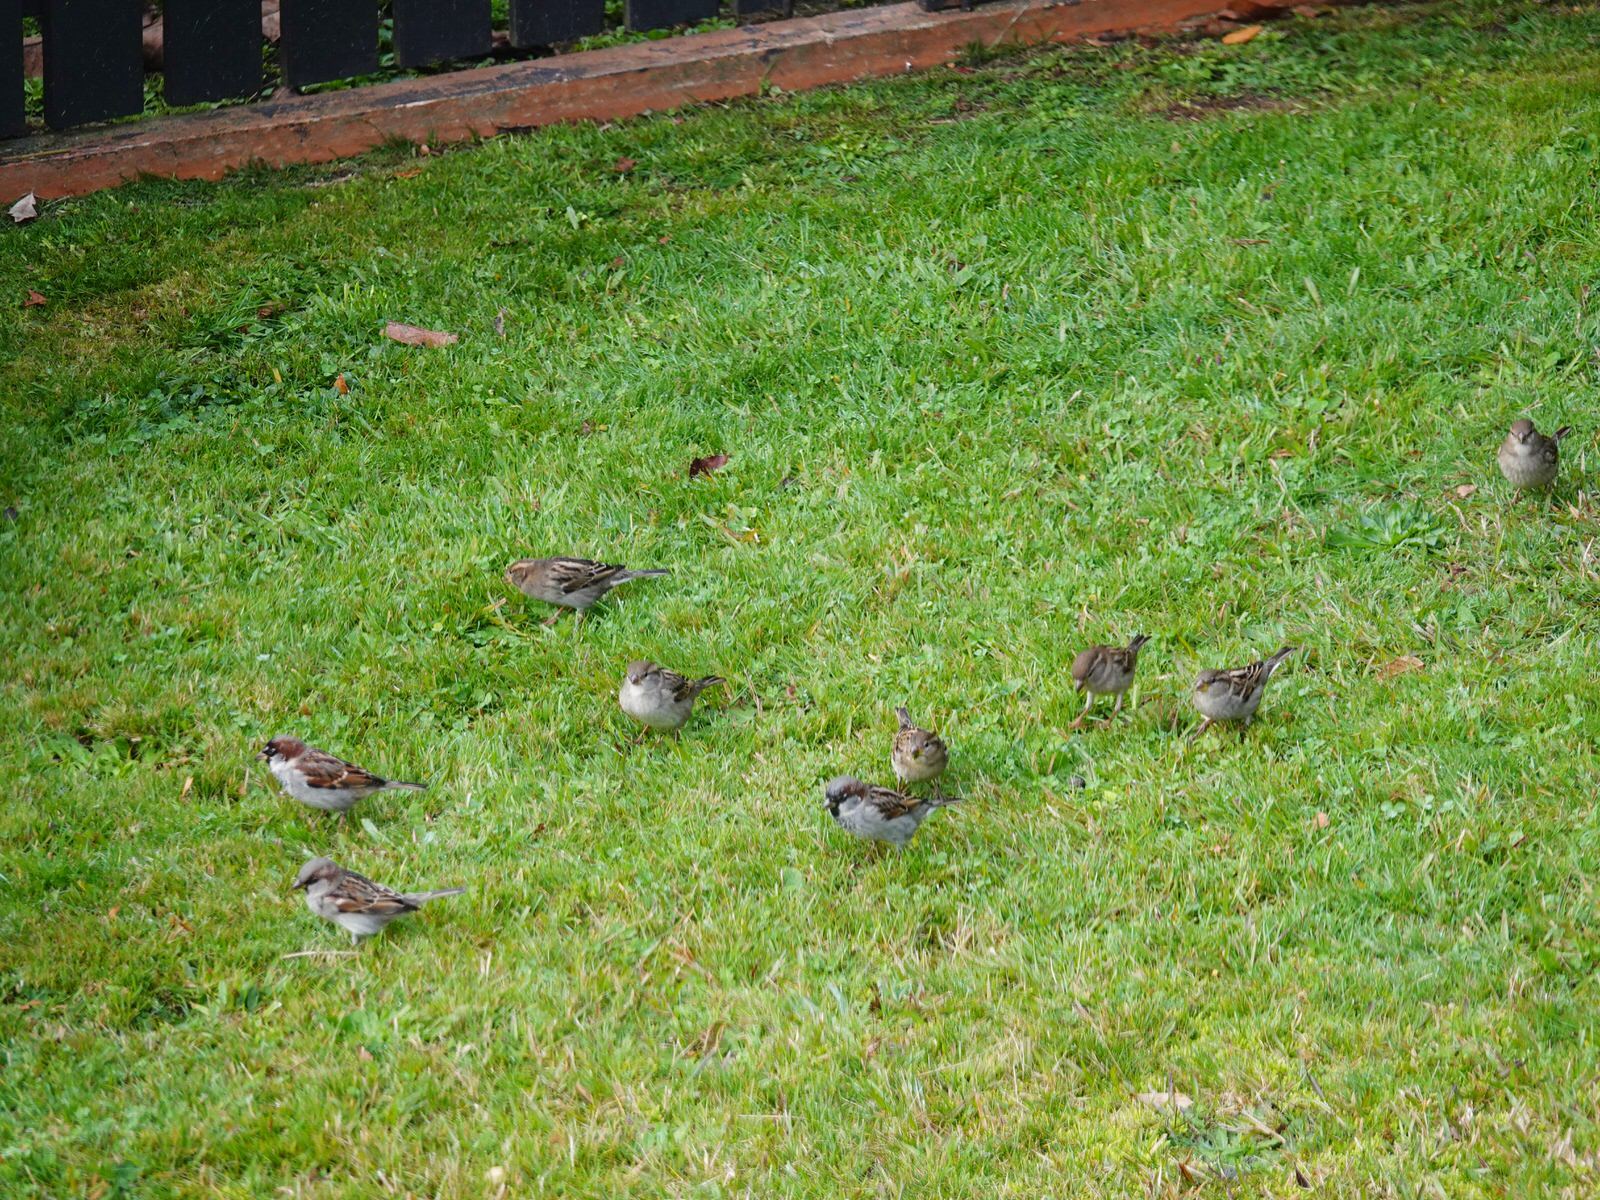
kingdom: Animalia
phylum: Chordata
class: Aves
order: Passeriformes
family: Passeridae
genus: Passer
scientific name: Passer domesticus
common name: House sparrow
